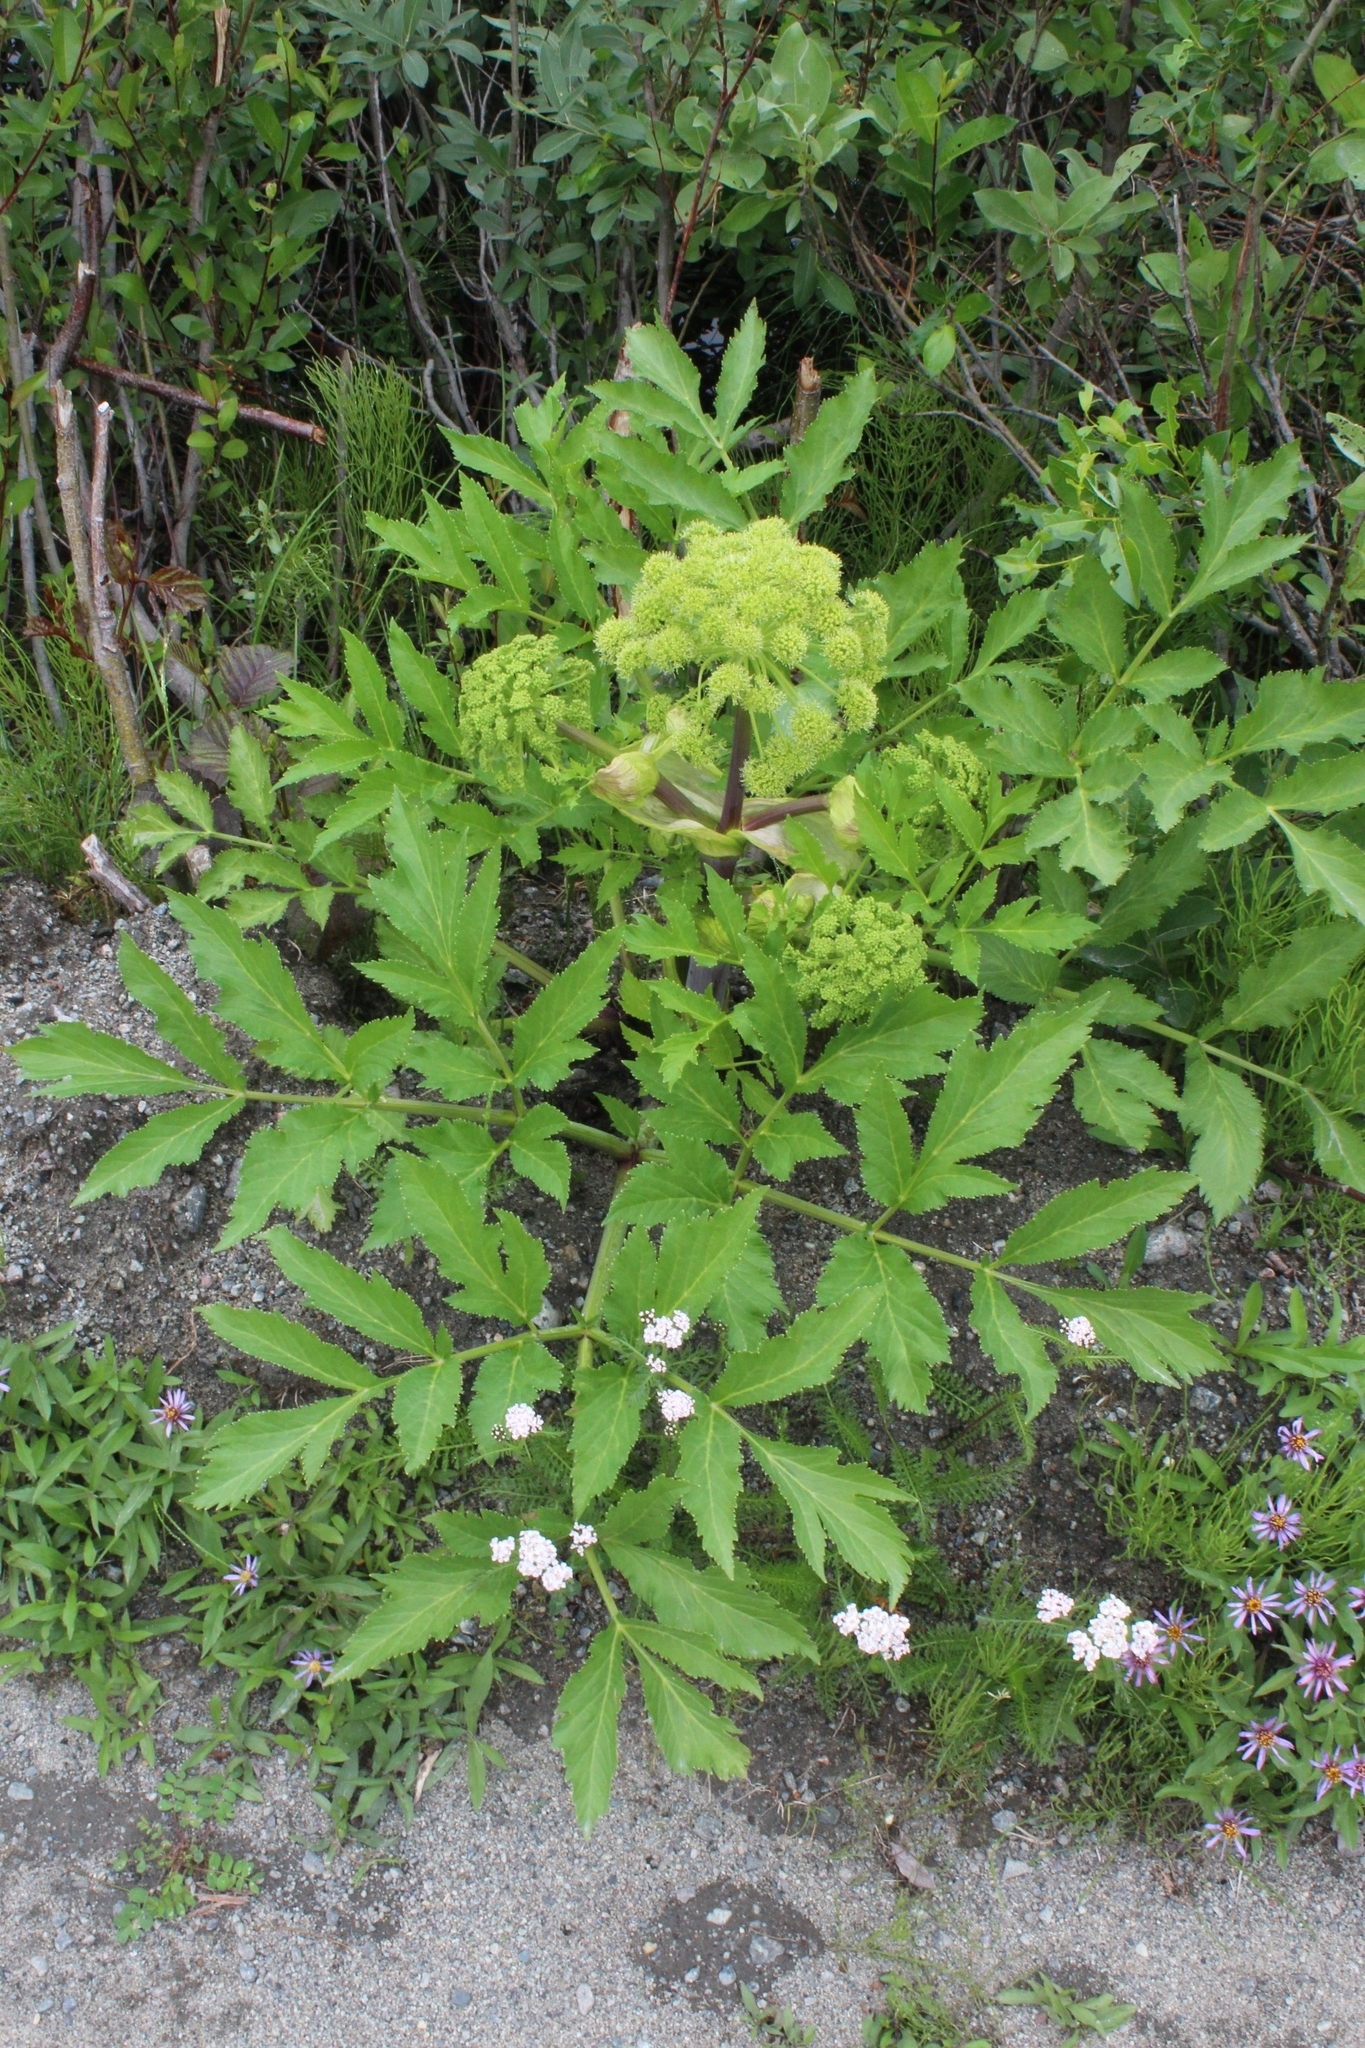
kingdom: Plantae
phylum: Tracheophyta
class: Magnoliopsida
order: Apiales
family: Apiaceae
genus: Angelica
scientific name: Angelica archangelica
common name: Garden angelica
